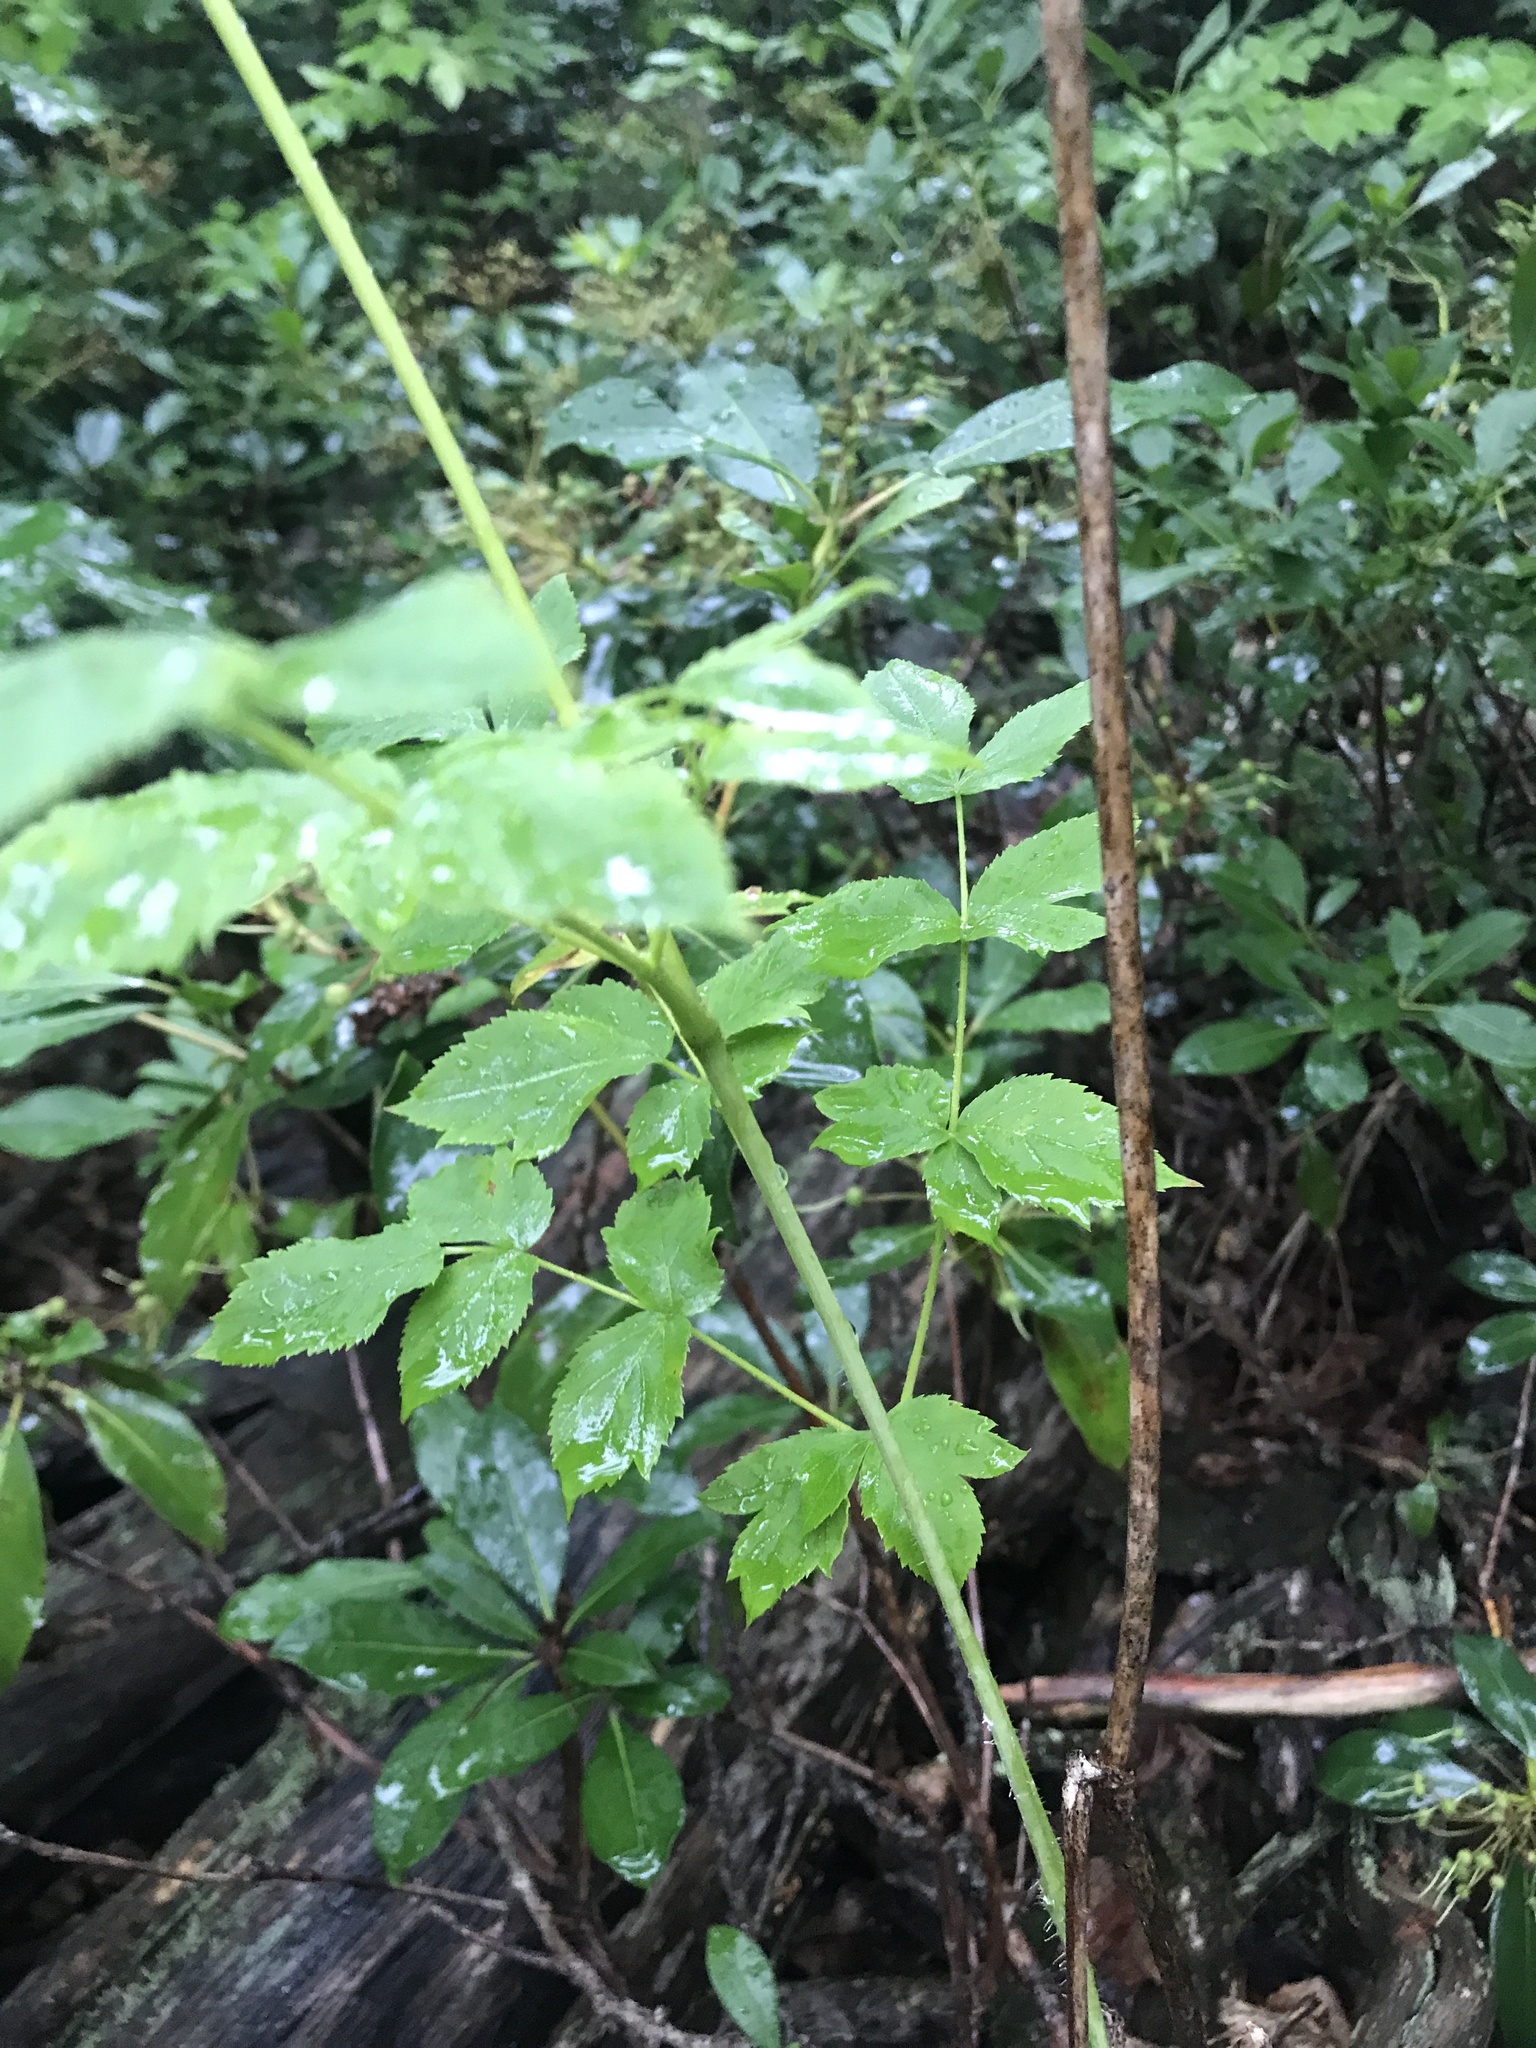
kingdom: Plantae
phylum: Tracheophyta
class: Magnoliopsida
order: Apiales
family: Araliaceae
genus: Aralia
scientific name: Aralia hispida
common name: Bristly sarsaparilla
